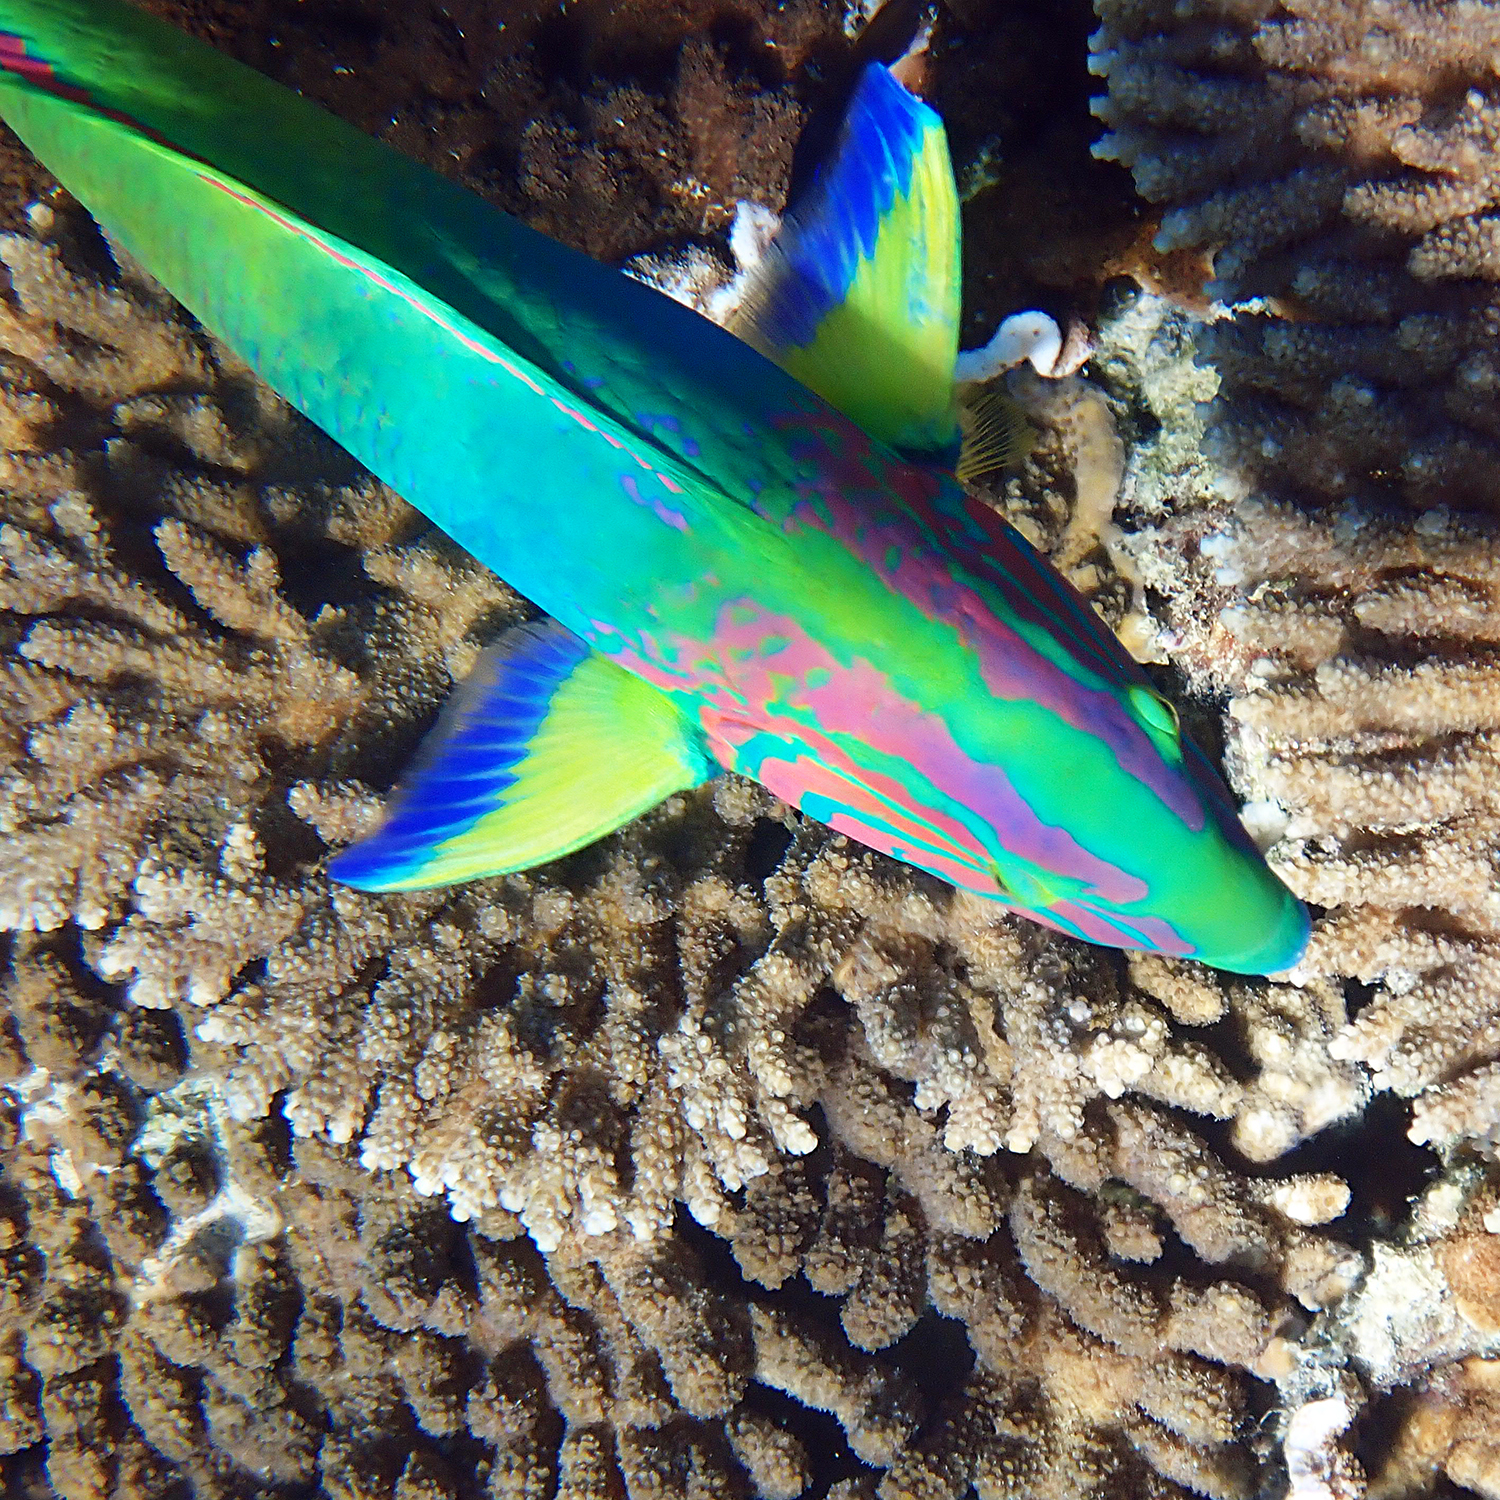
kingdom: Animalia
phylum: Chordata
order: Perciformes
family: Labridae
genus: Thalassoma
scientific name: Thalassoma lutescens
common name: Green moon wrasse
